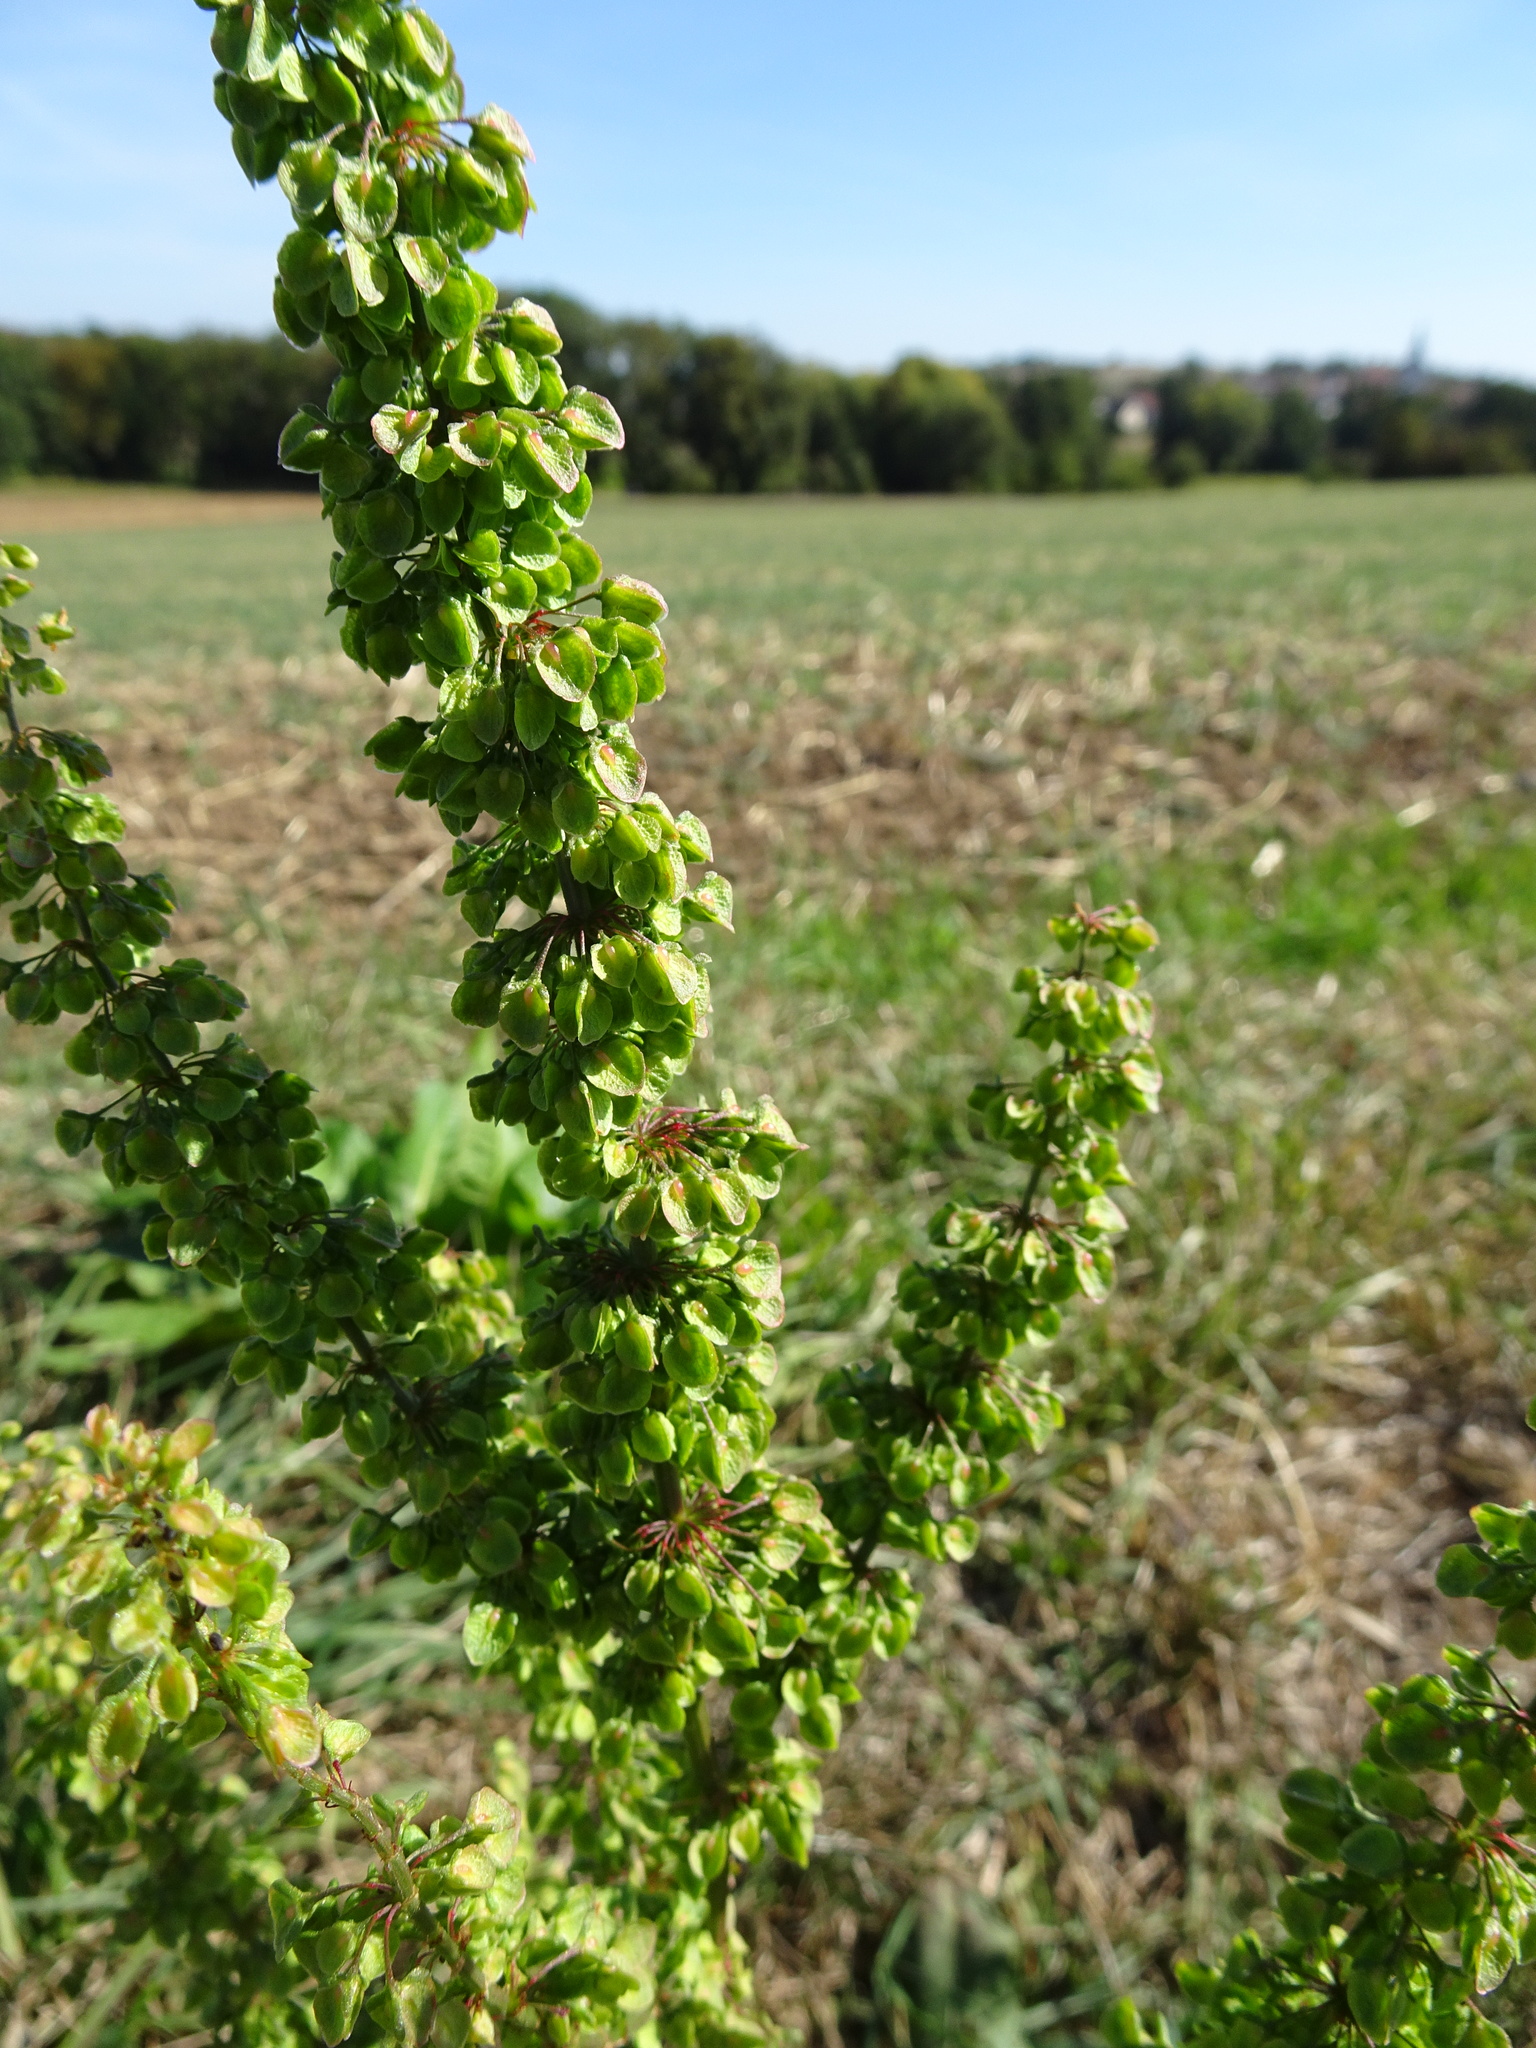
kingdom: Plantae
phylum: Tracheophyta
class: Magnoliopsida
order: Caryophyllales
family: Polygonaceae
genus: Rumex
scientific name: Rumex crispus
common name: Curled dock
